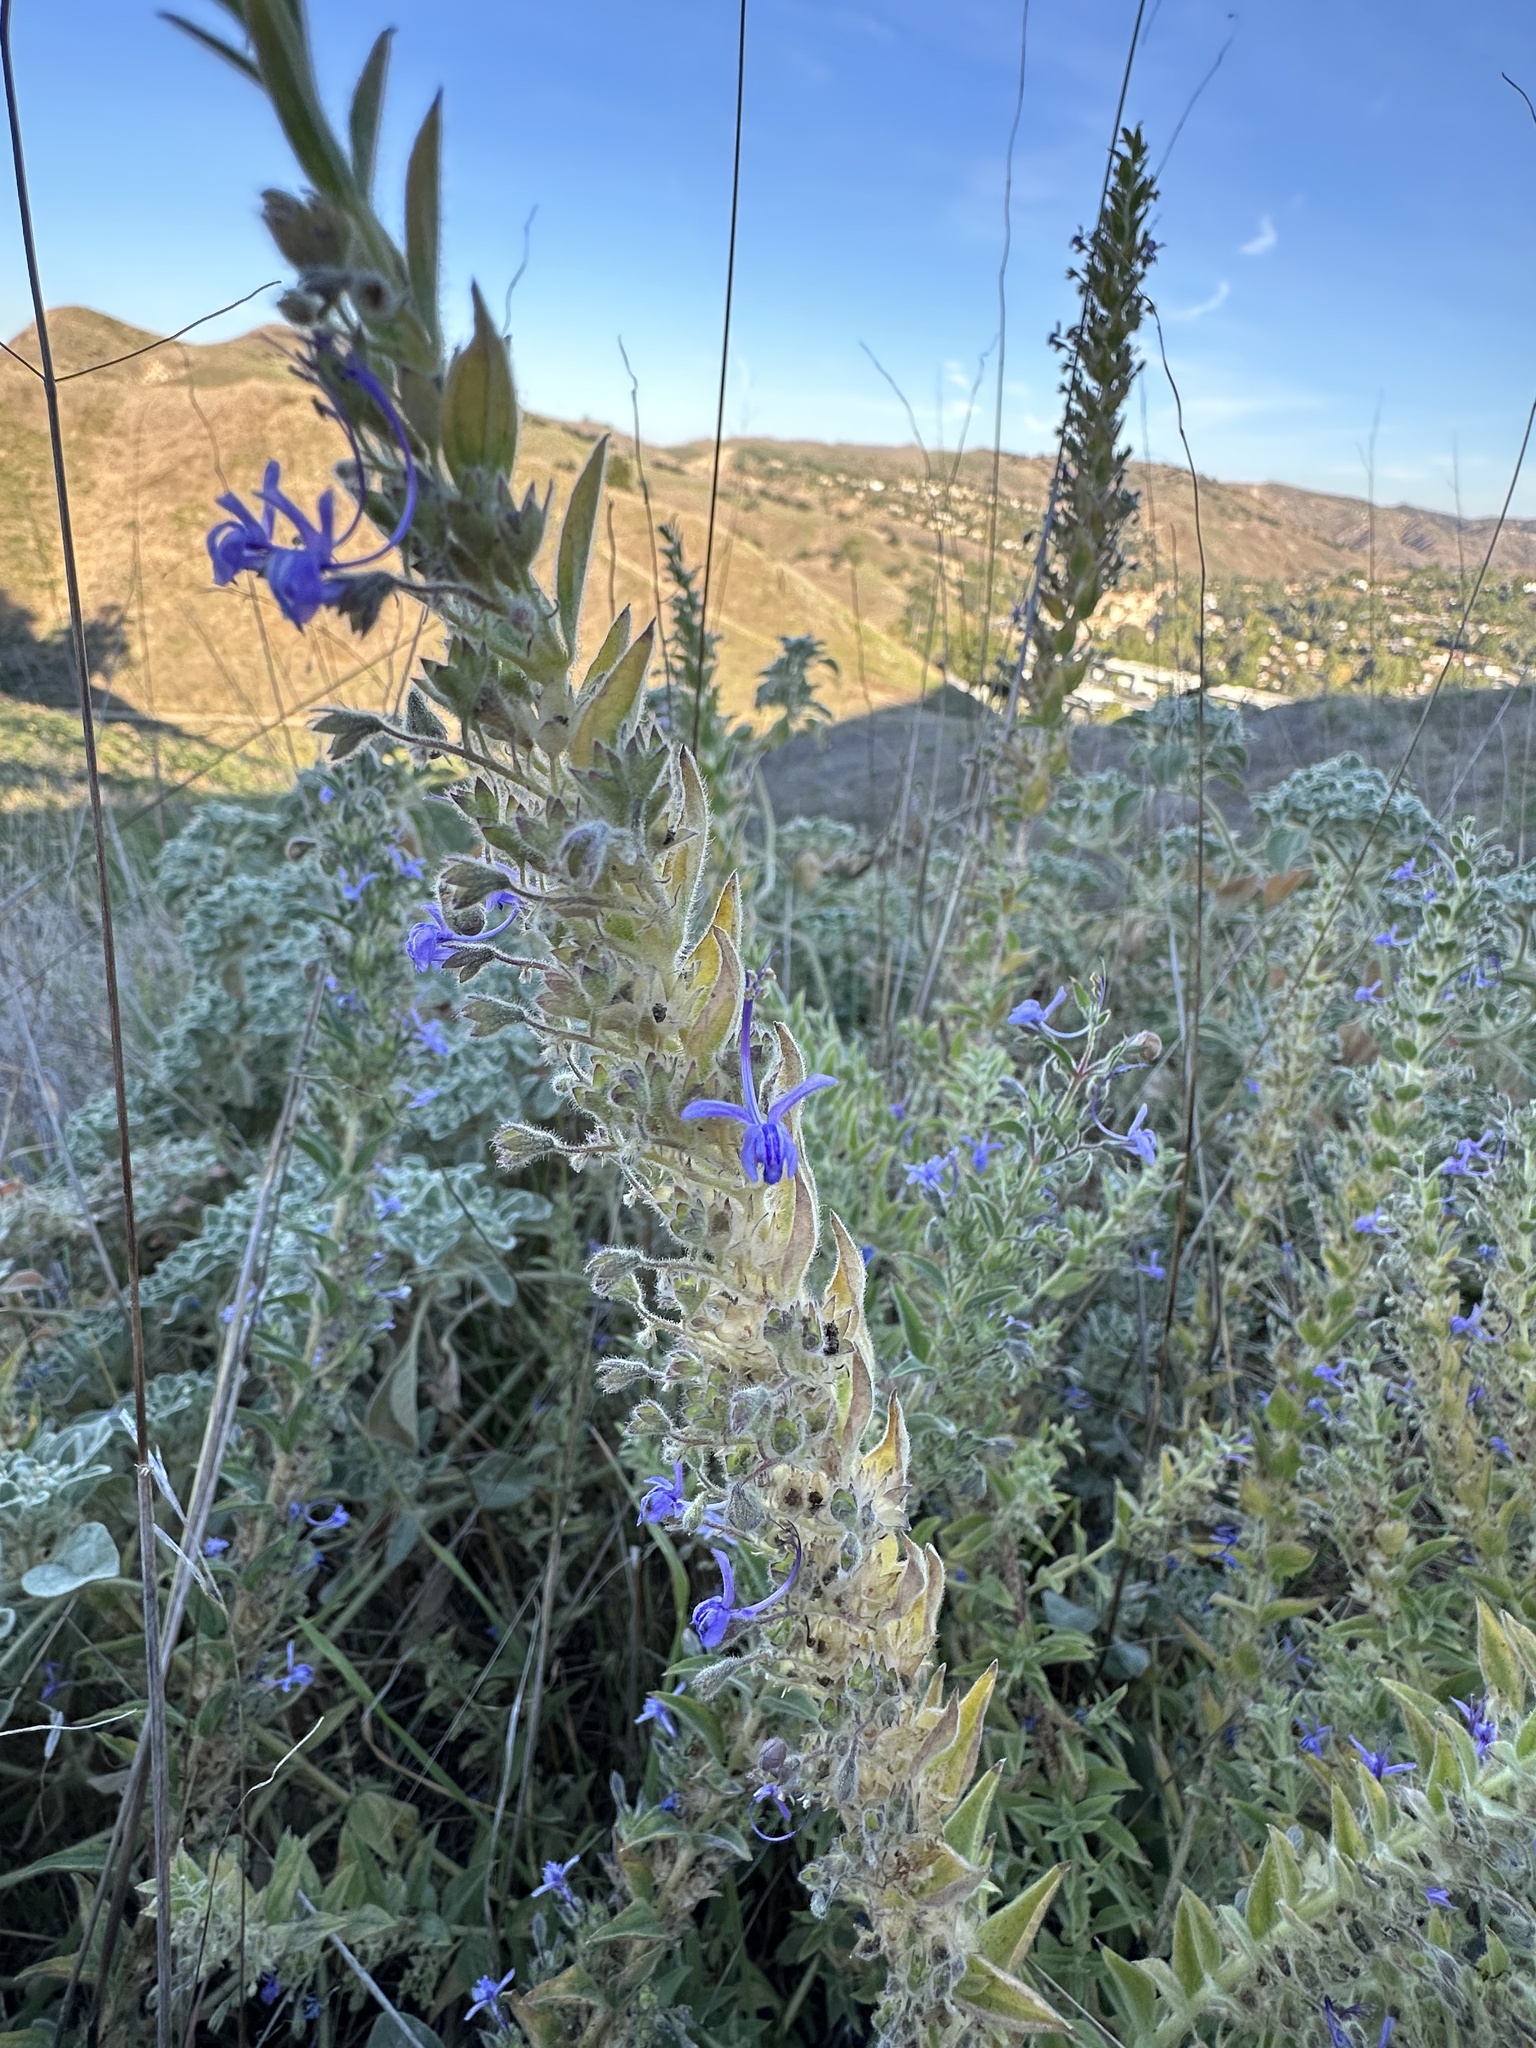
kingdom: Plantae
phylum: Tracheophyta
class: Magnoliopsida
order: Lamiales
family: Lamiaceae
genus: Trichostema
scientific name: Trichostema lanceolatum
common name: Vinegar-weed
